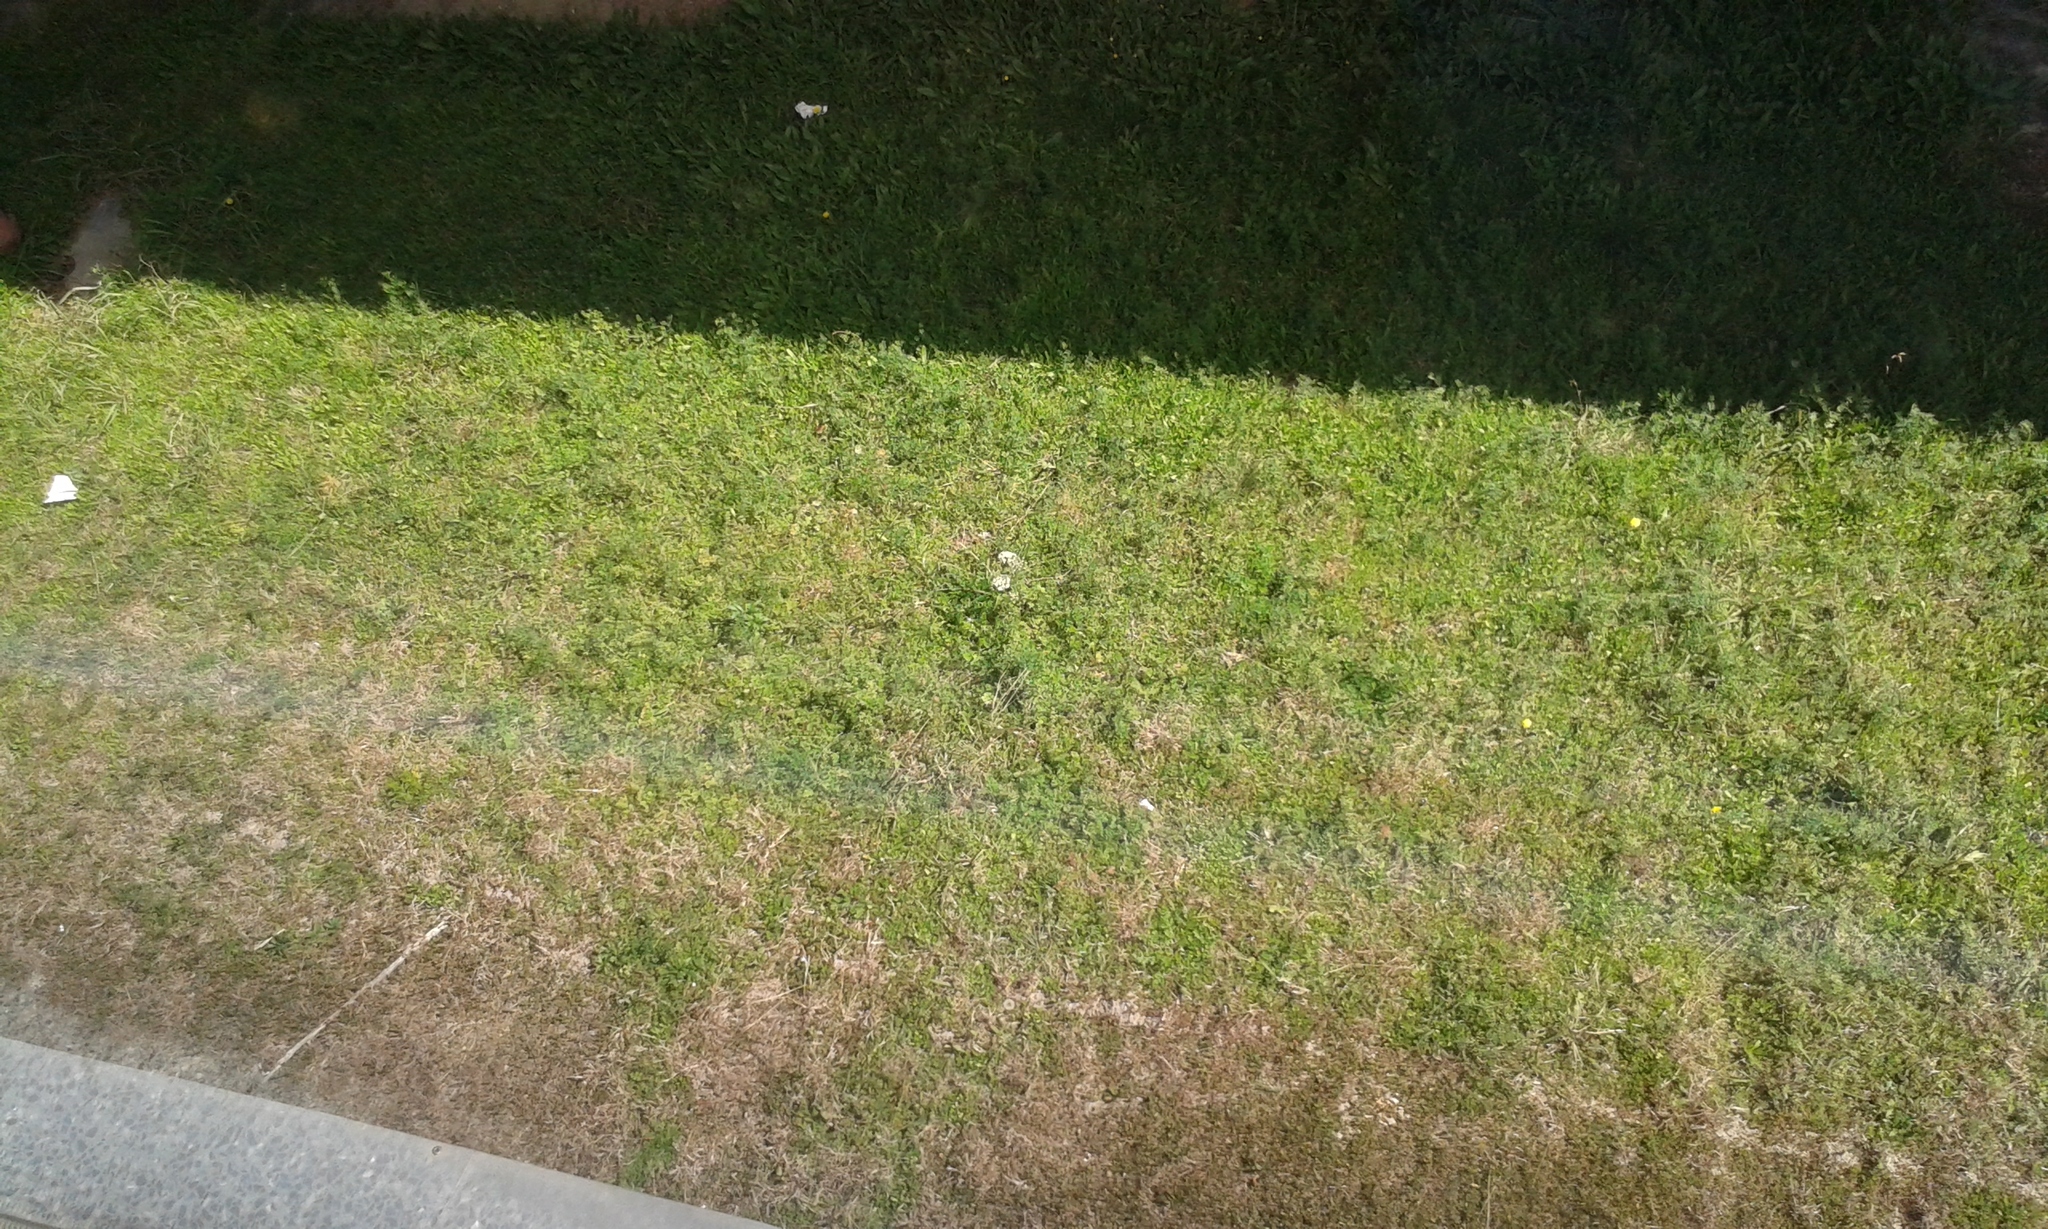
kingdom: Plantae
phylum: Tracheophyta
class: Magnoliopsida
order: Apiales
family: Apiaceae
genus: Daucus
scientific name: Daucus carota
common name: Wild carrot
